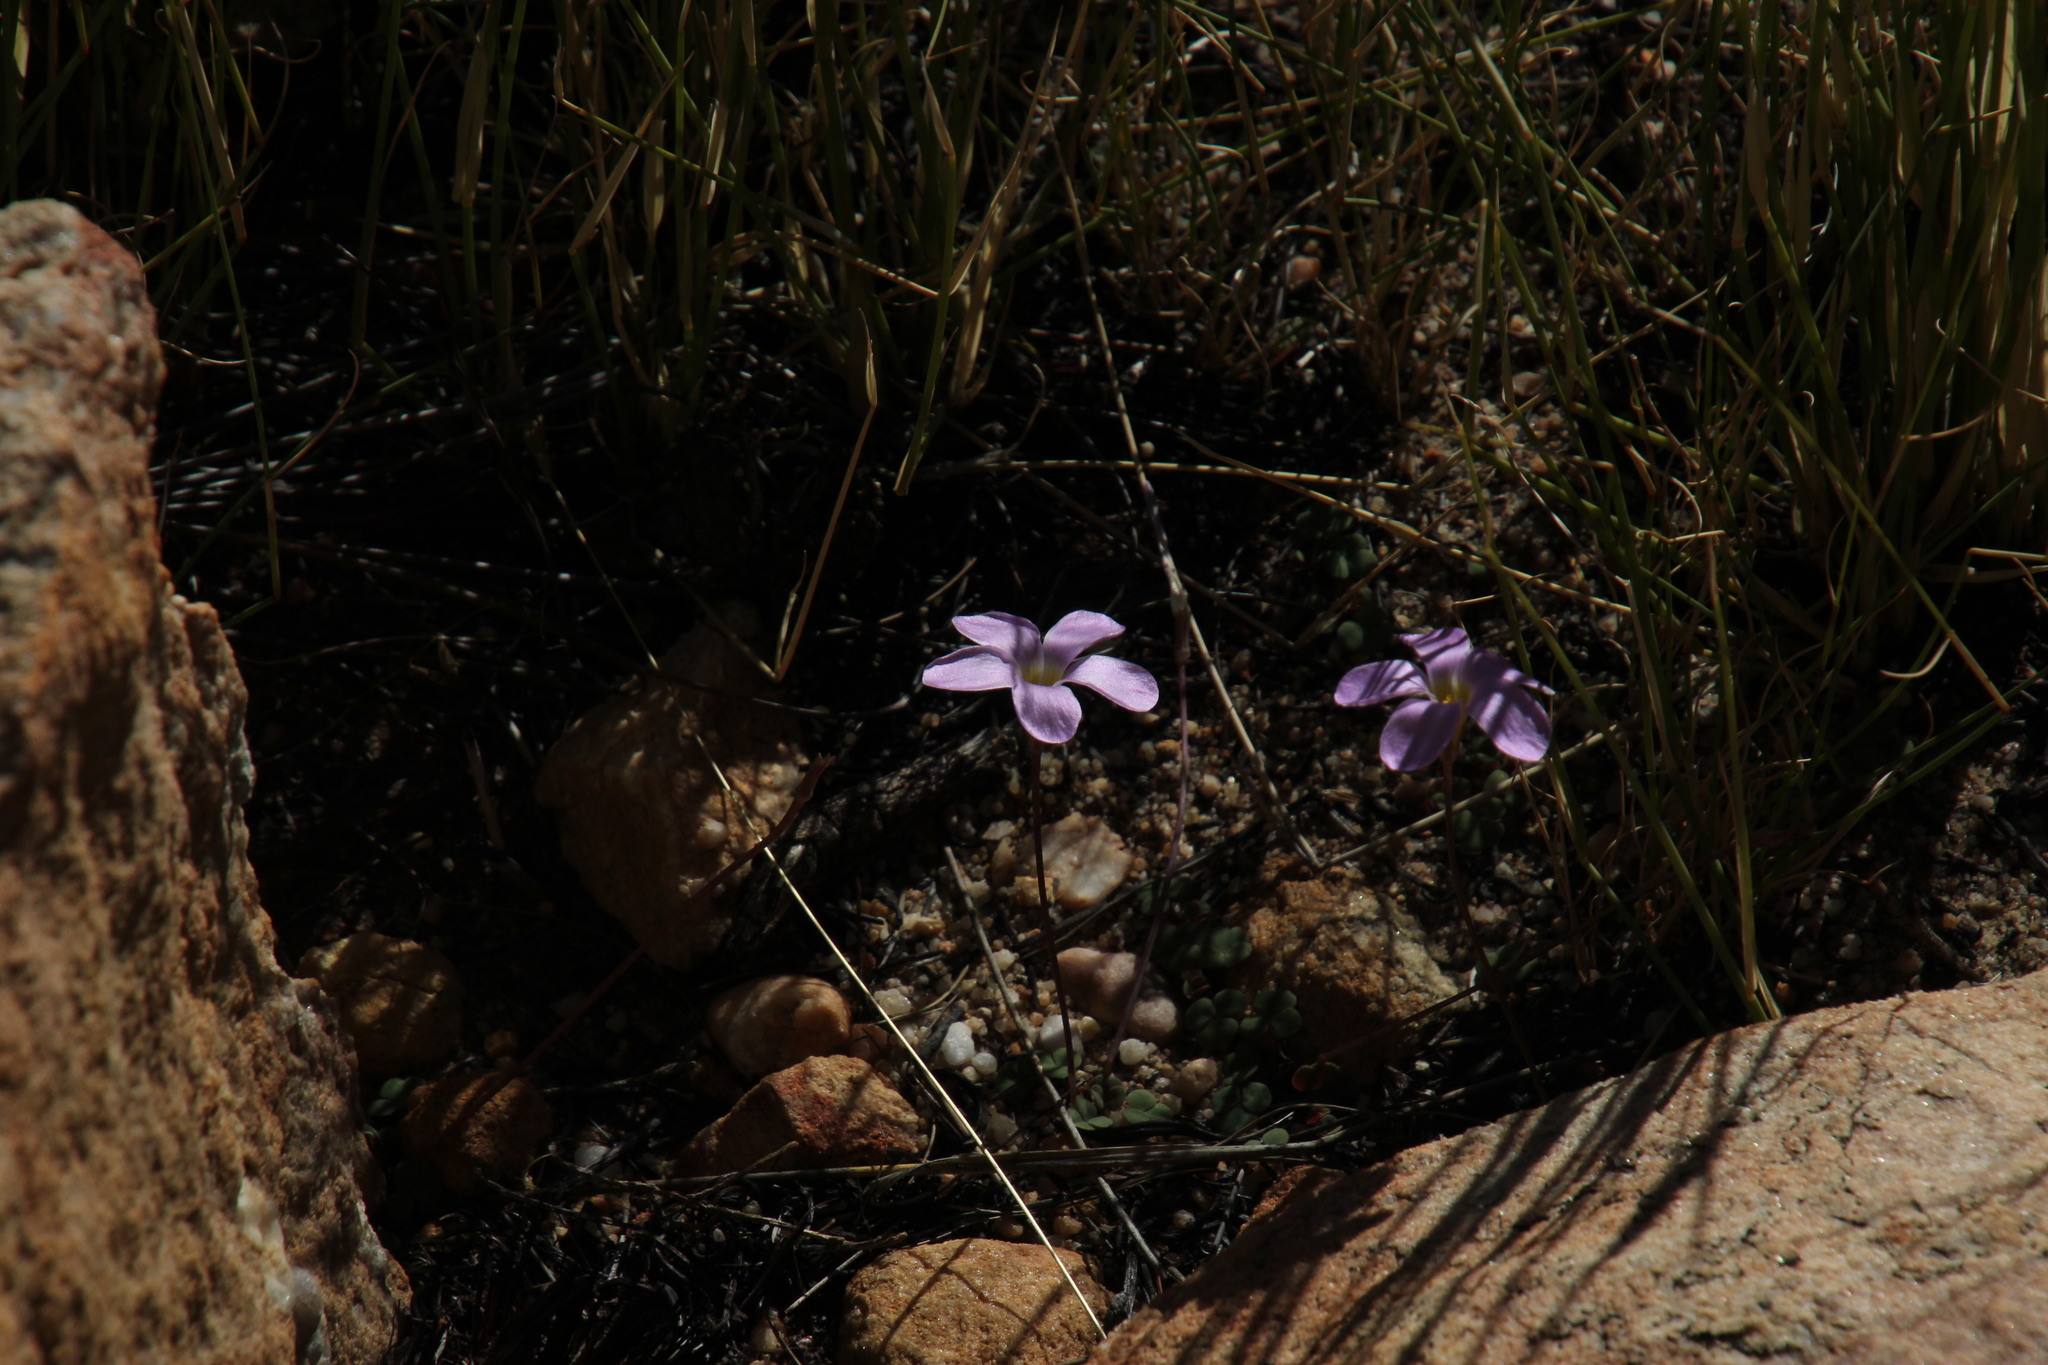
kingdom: Plantae
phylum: Tracheophyta
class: Magnoliopsida
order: Oxalidales
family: Oxalidaceae
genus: Oxalis
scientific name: Oxalis pocockiae
